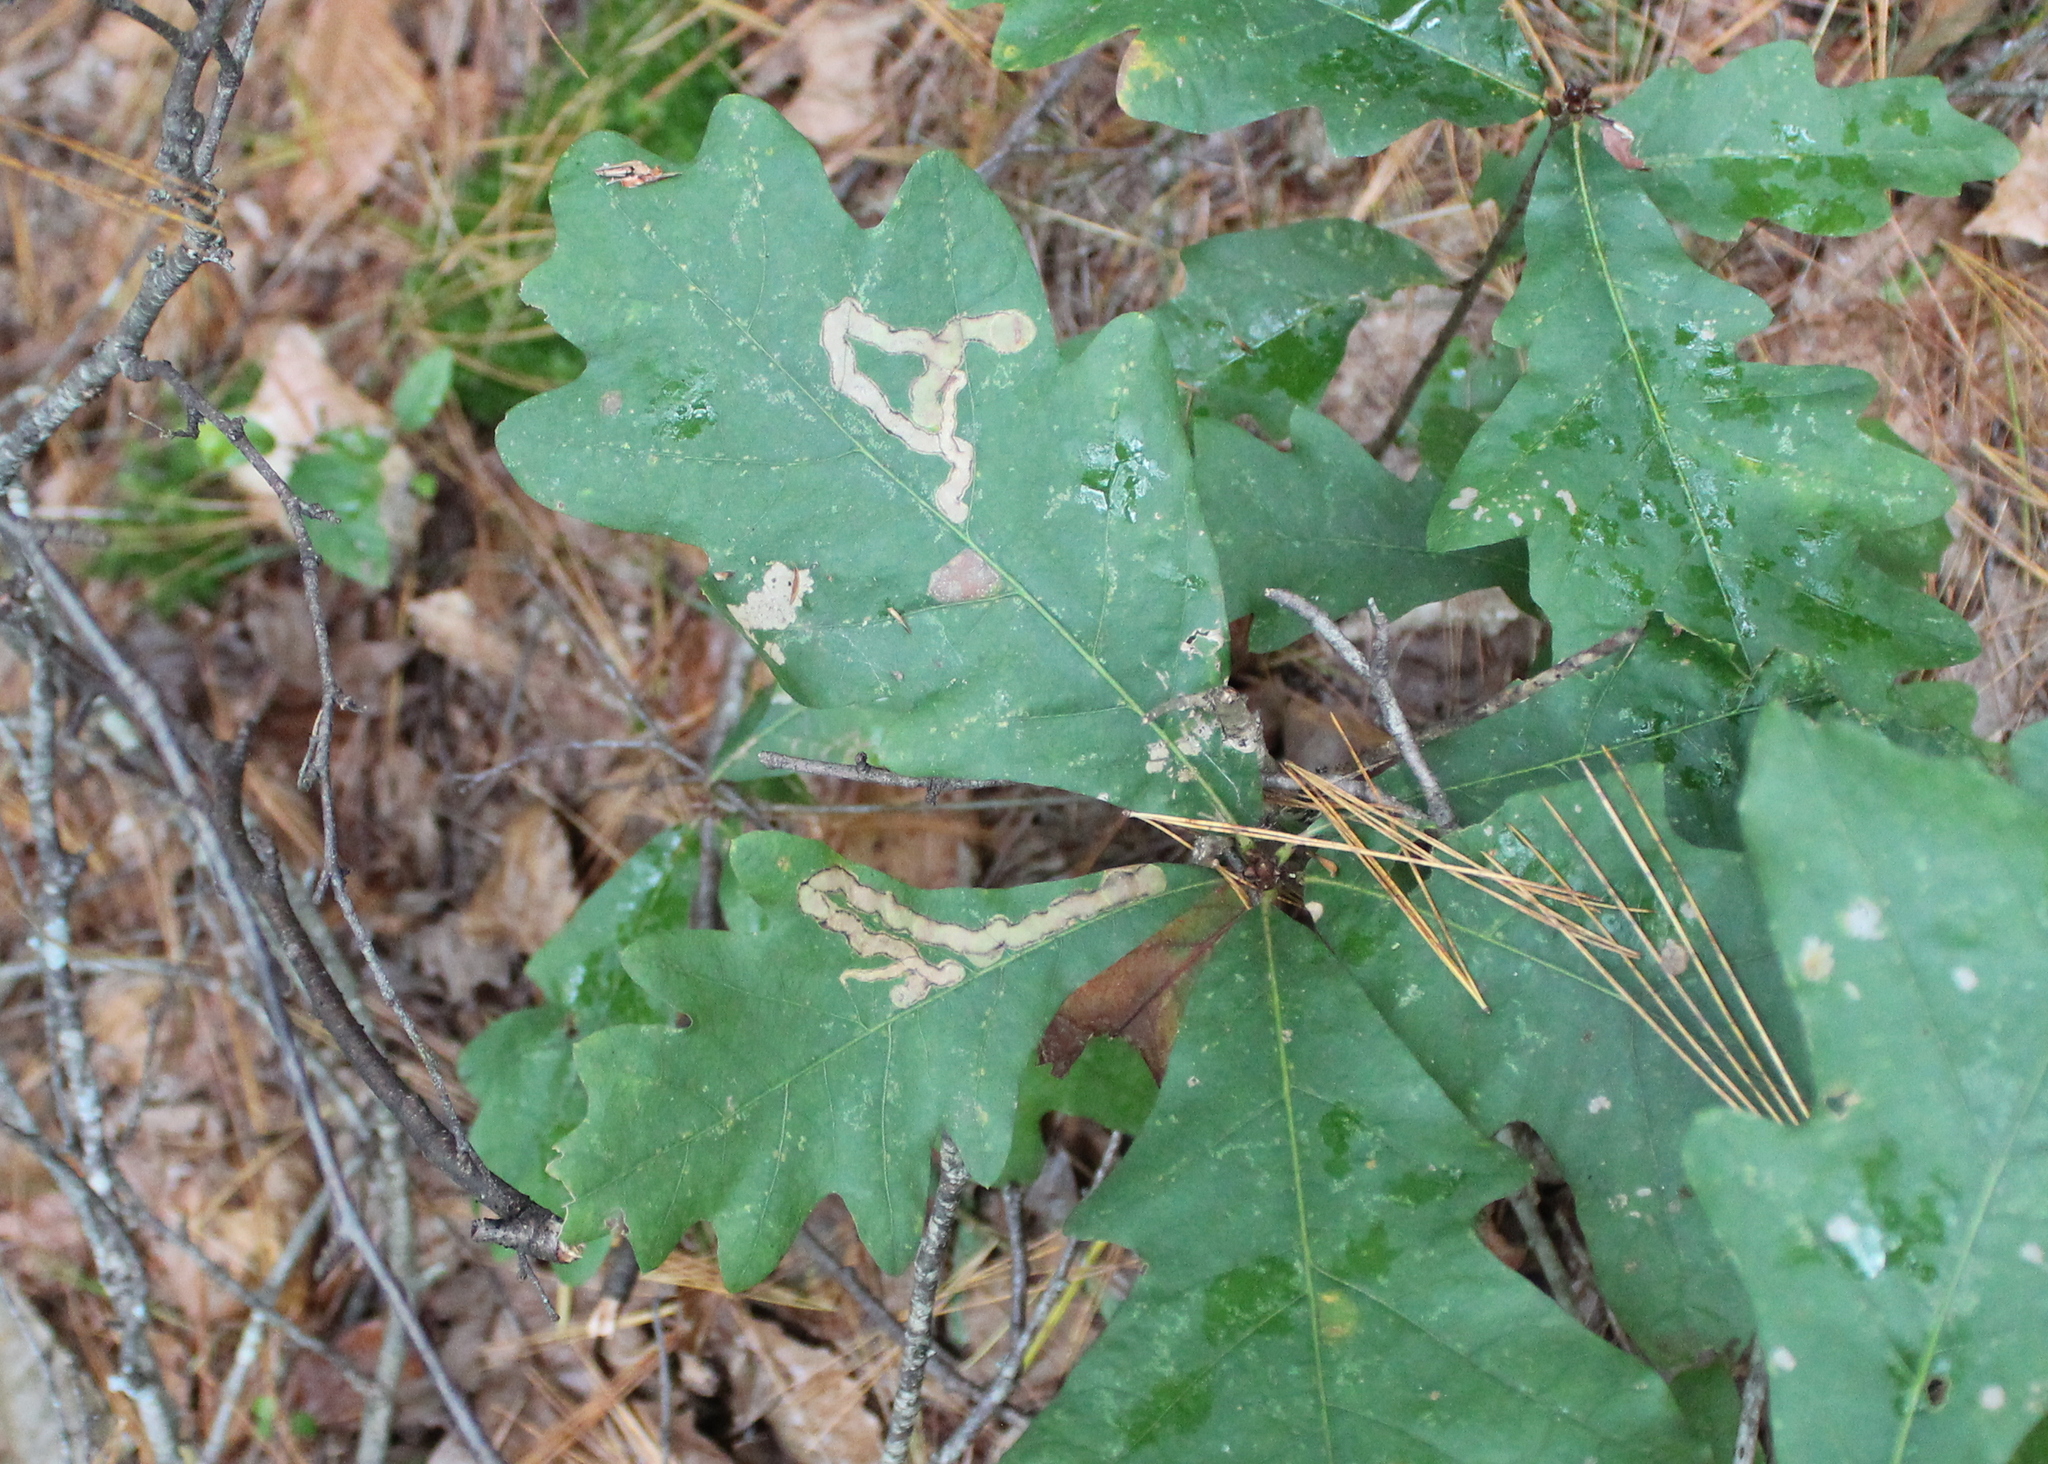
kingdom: Plantae
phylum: Tracheophyta
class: Magnoliopsida
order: Fagales
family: Fagaceae
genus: Quercus
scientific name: Quercus alba
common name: White oak
